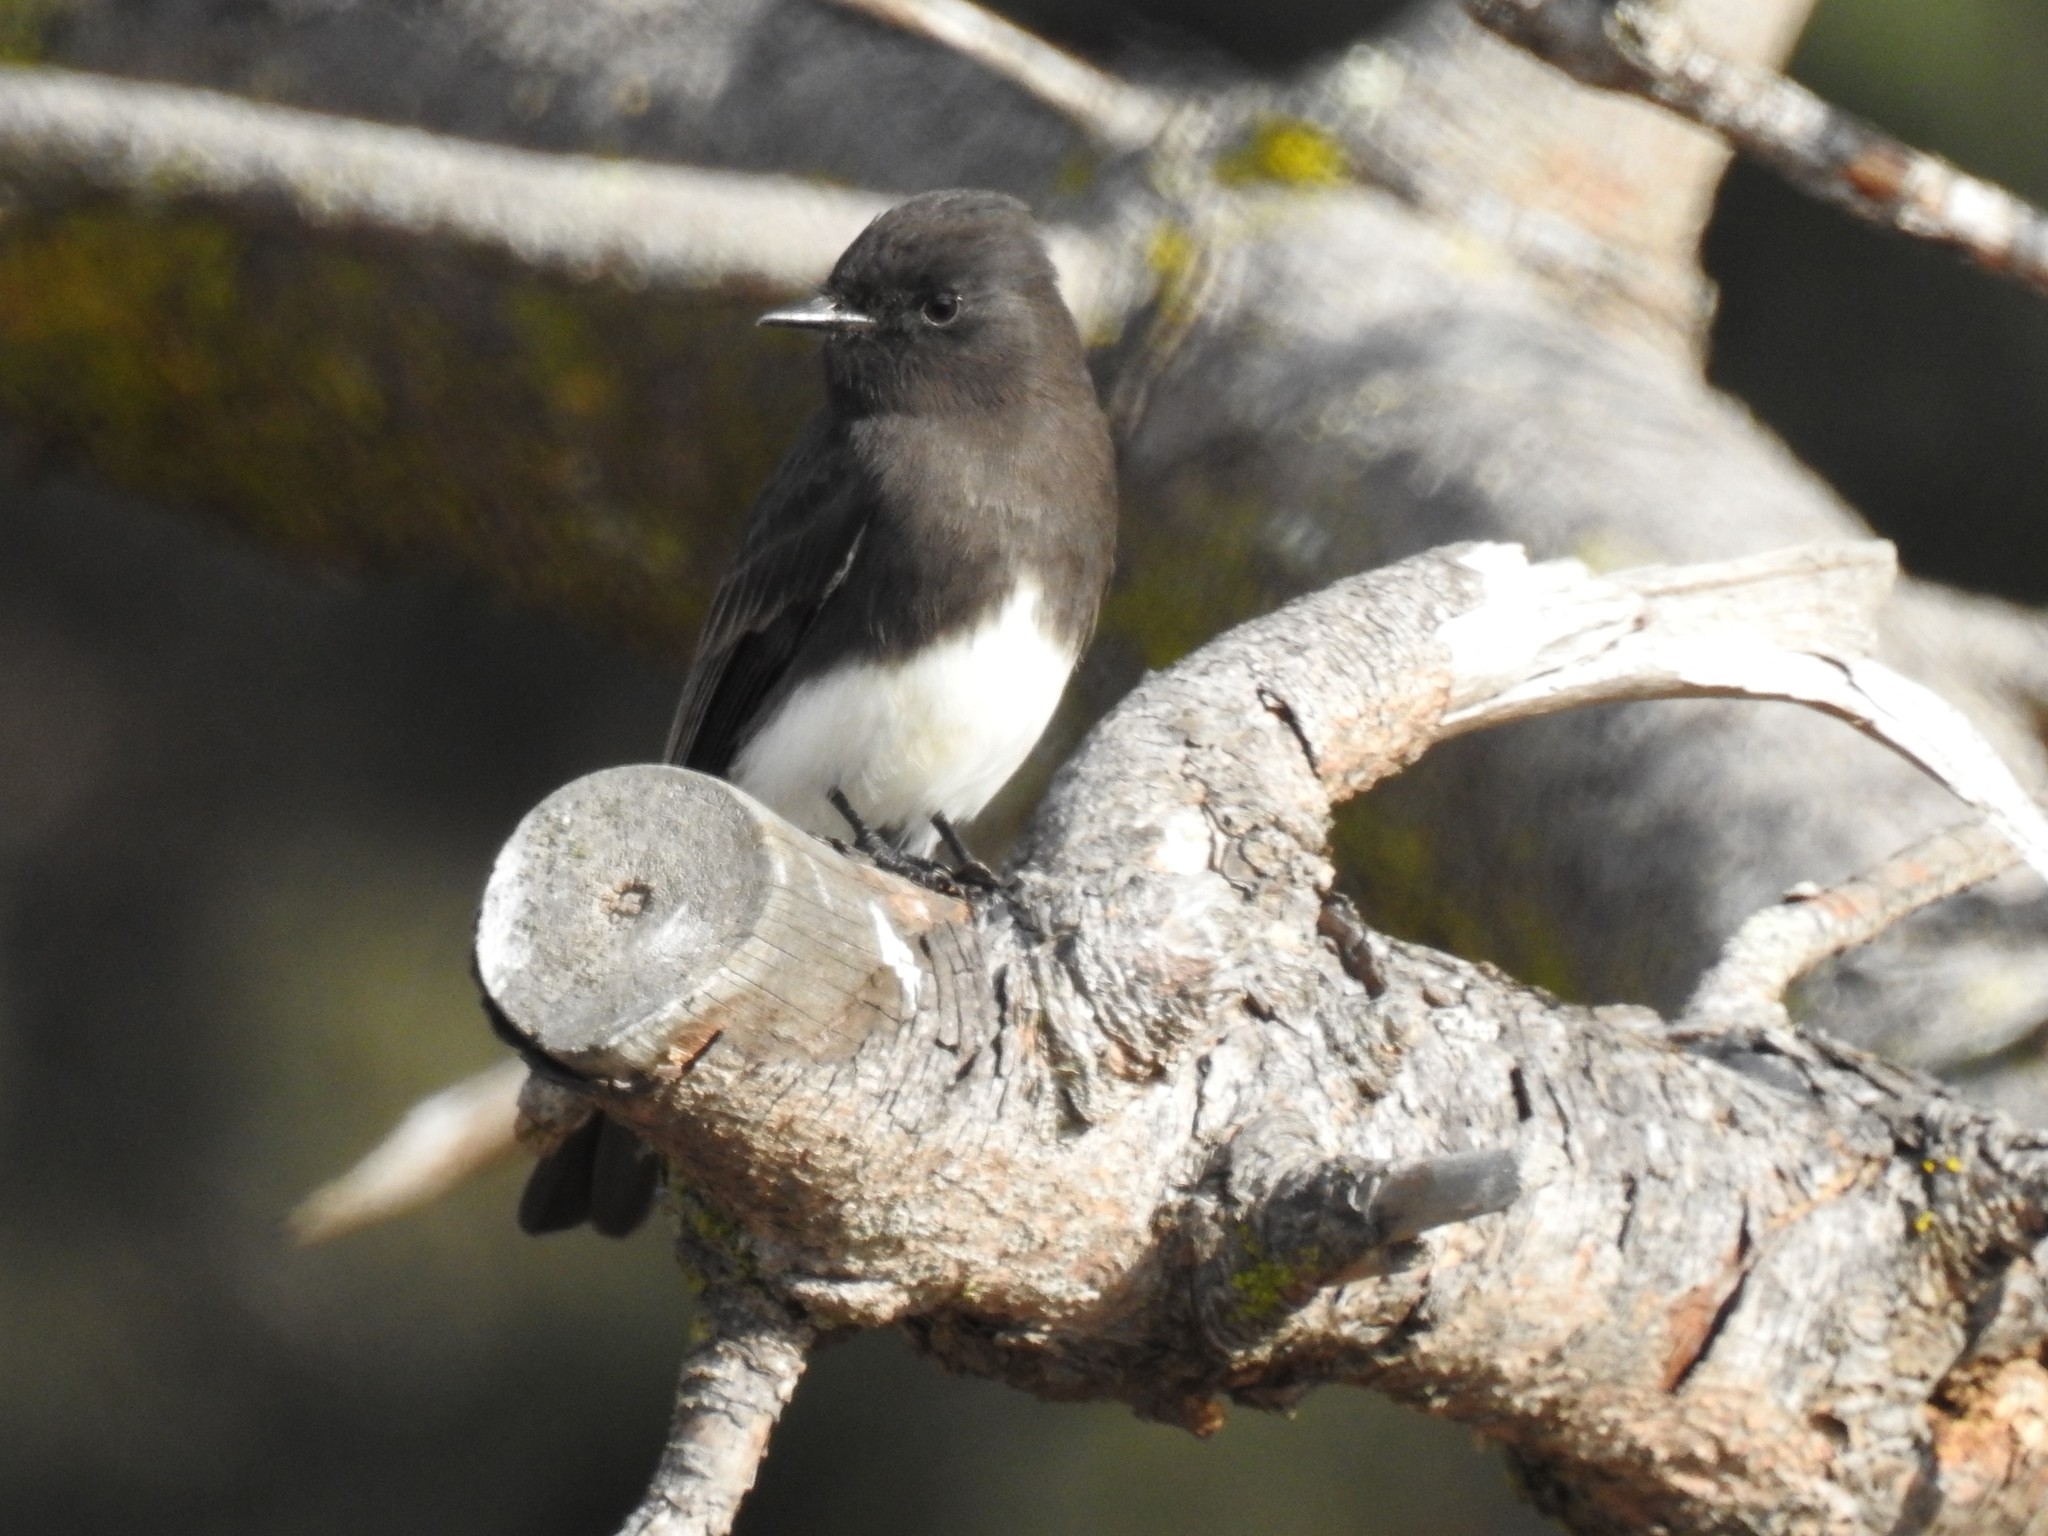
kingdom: Animalia
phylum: Chordata
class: Aves
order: Passeriformes
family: Tyrannidae
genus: Sayornis
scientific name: Sayornis nigricans
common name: Black phoebe
